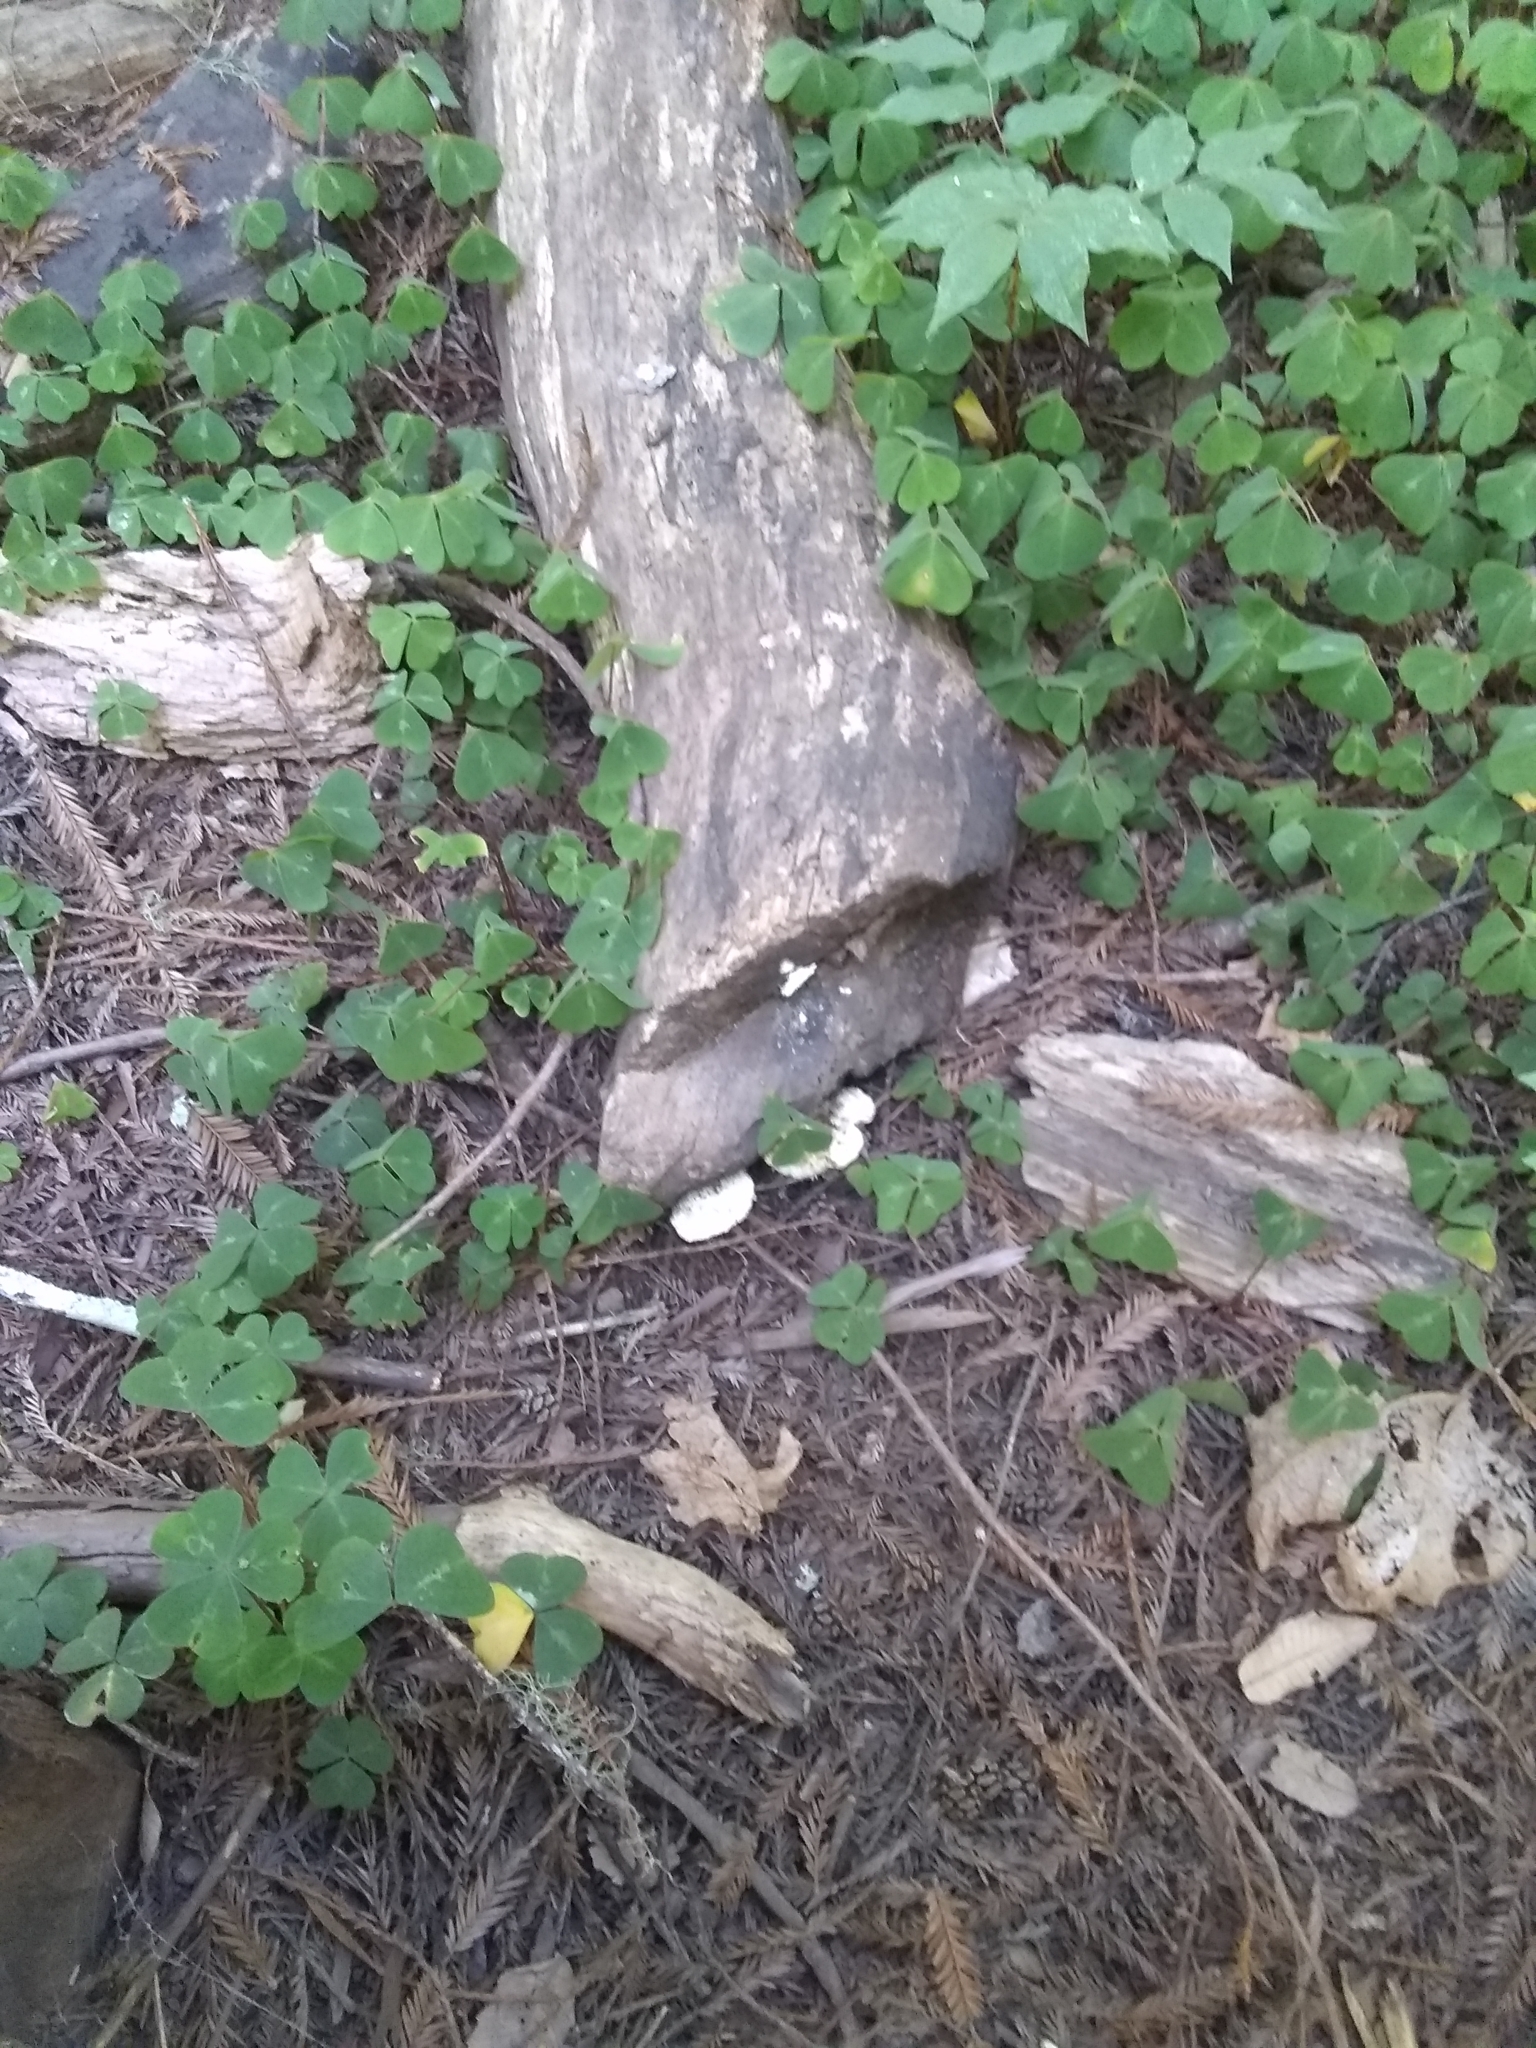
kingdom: Fungi
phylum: Basidiomycota
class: Agaricomycetes
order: Polyporales
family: Incrustoporiaceae
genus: Tyromyces
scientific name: Tyromyces chioneus
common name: White cheese polypore
